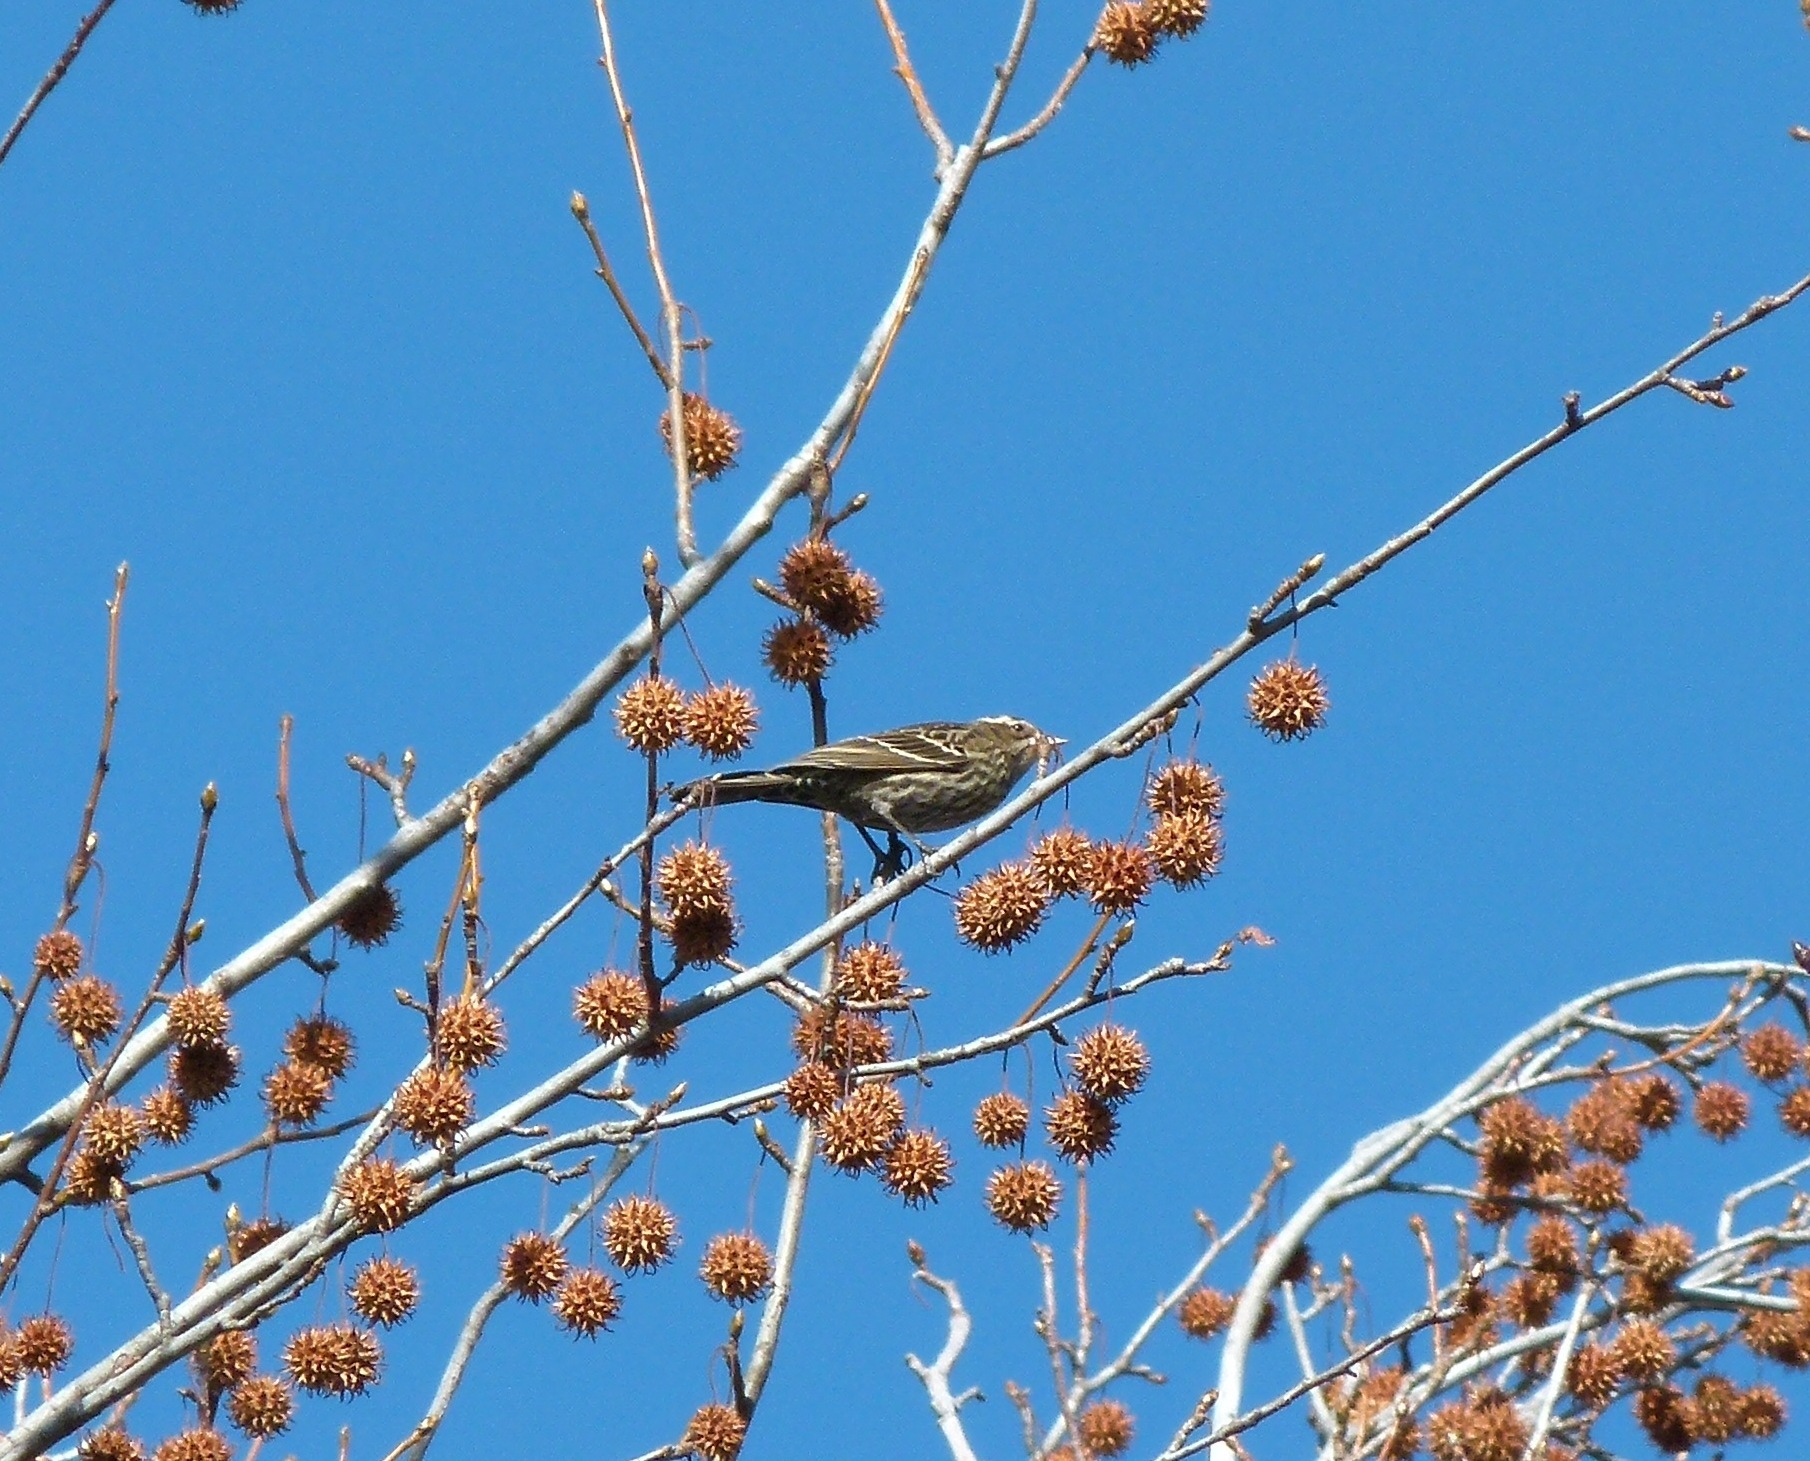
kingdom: Animalia
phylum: Chordata
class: Aves
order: Passeriformes
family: Icteridae
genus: Agelaius
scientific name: Agelaius phoeniceus
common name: Red-winged blackbird
